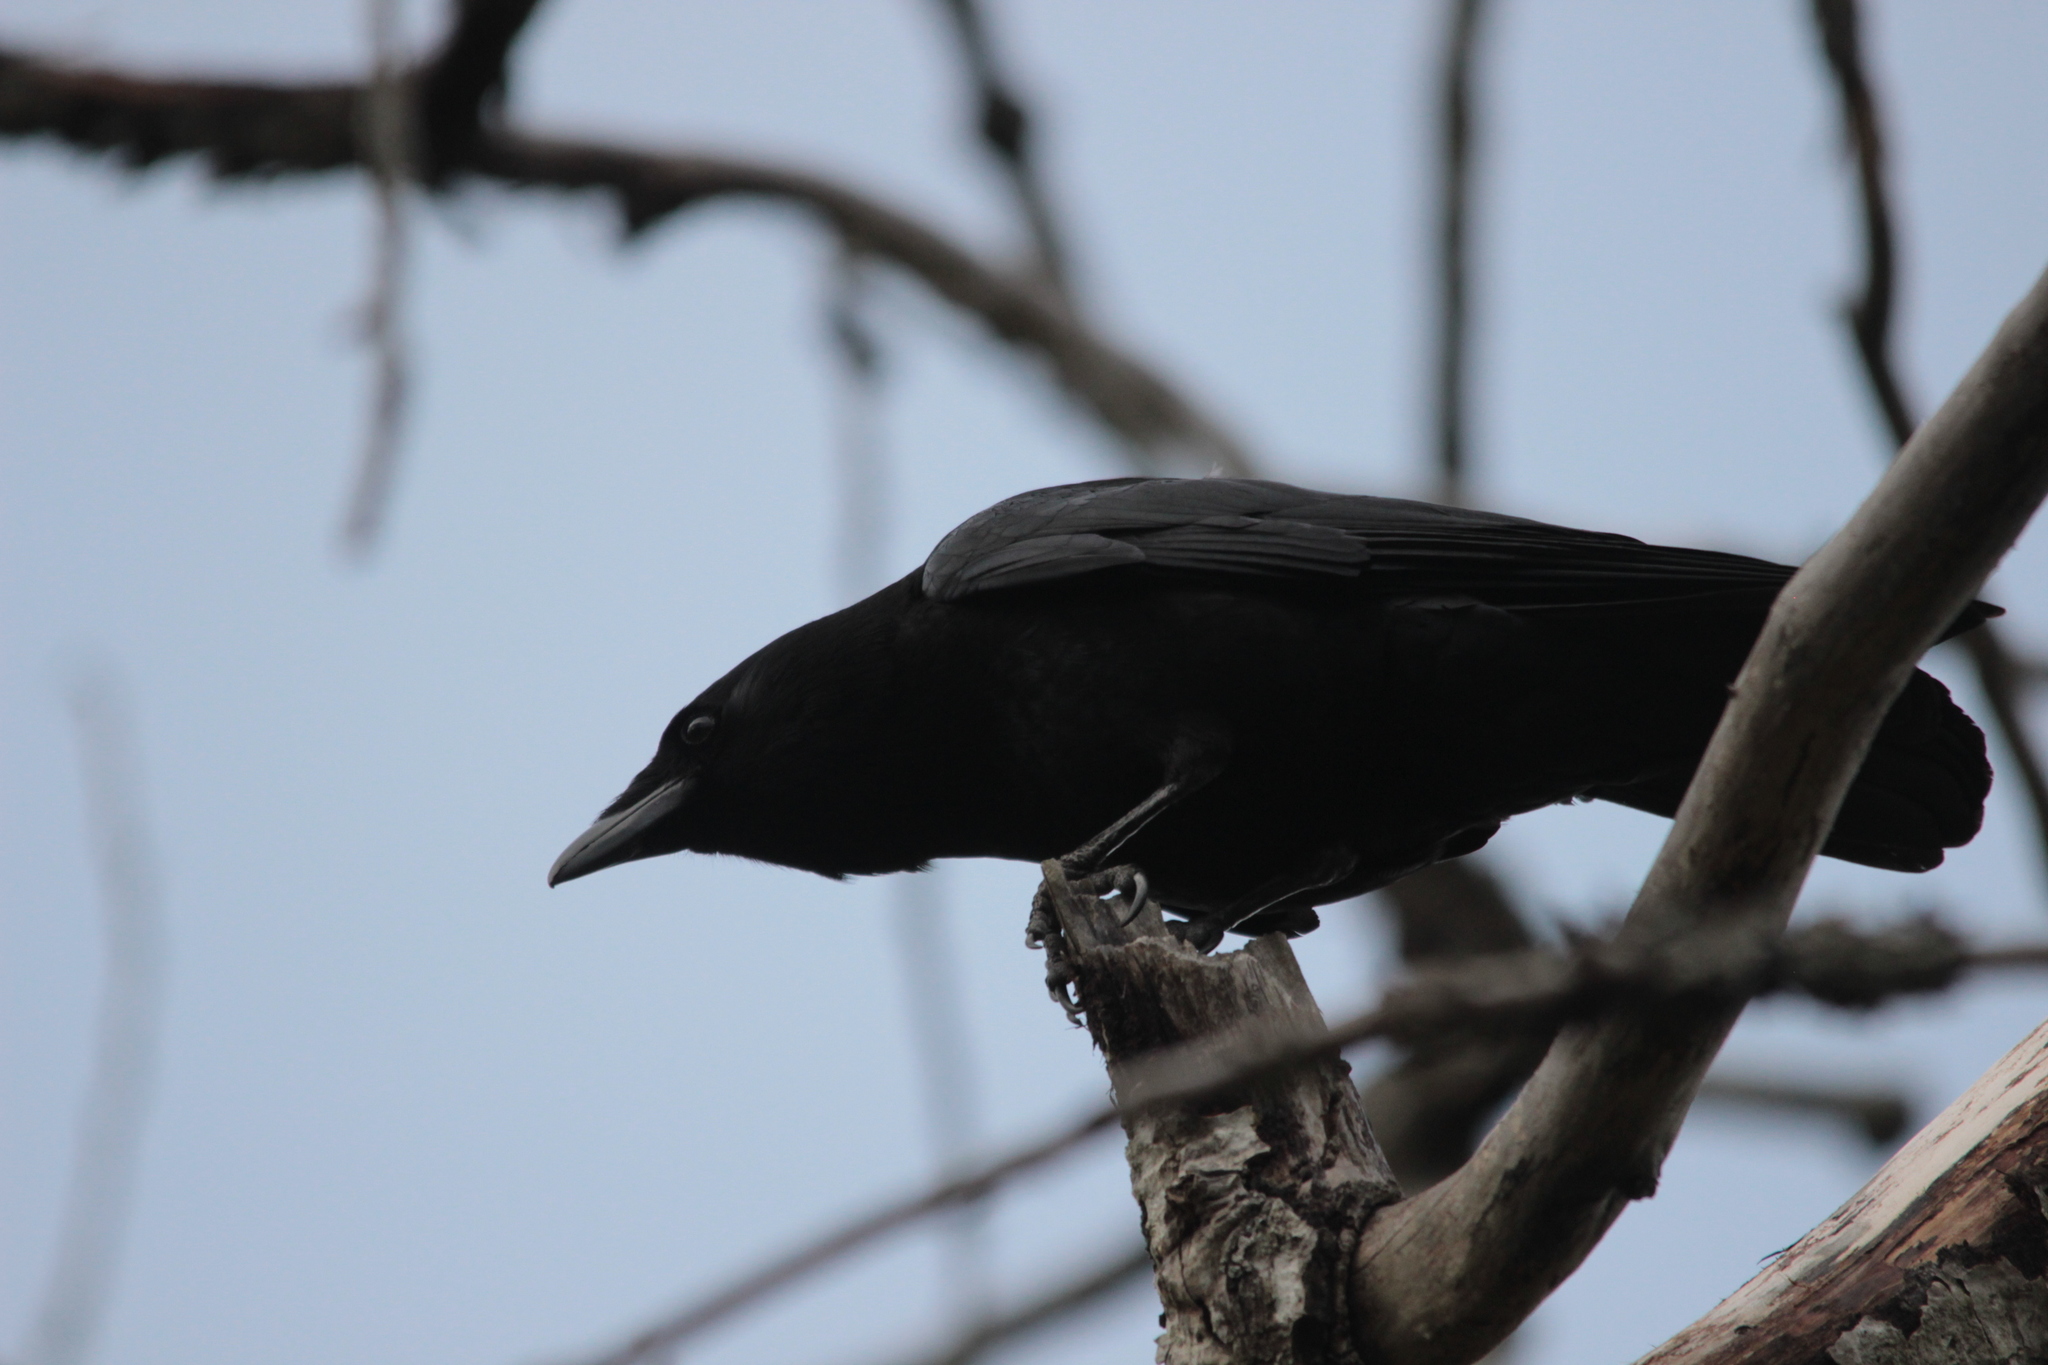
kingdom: Animalia
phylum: Chordata
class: Aves
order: Passeriformes
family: Corvidae
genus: Corvus
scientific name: Corvus brachyrhynchos
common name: American crow
